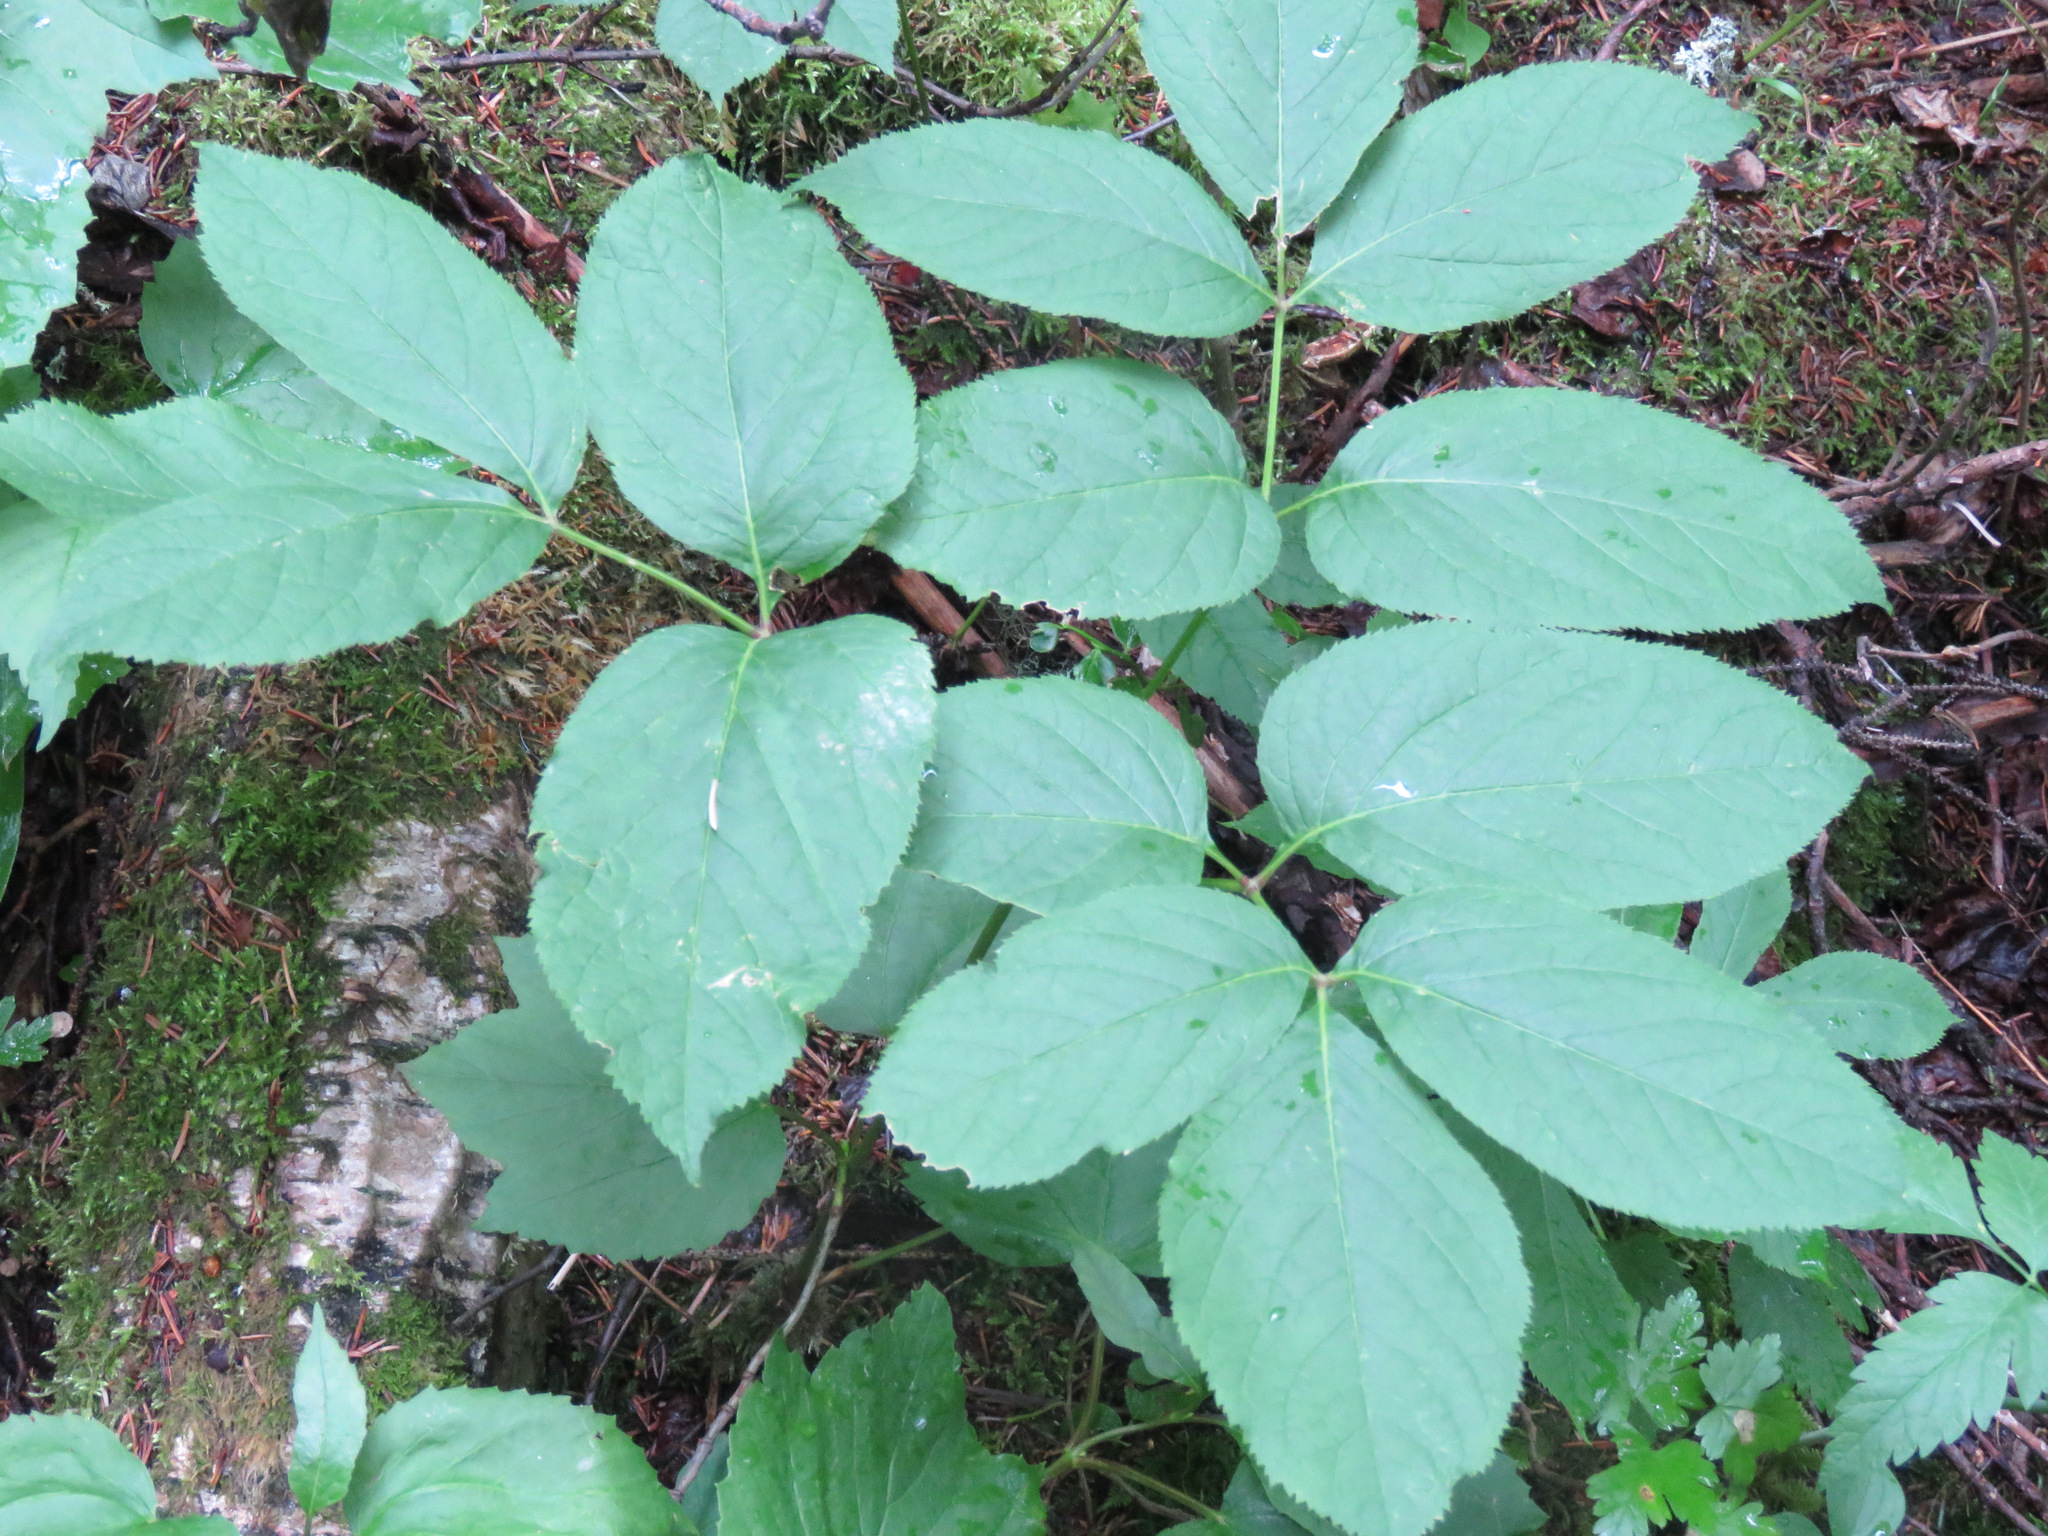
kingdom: Plantae
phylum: Tracheophyta
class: Magnoliopsida
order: Apiales
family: Araliaceae
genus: Aralia
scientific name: Aralia nudicaulis
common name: Wild sarsaparilla
